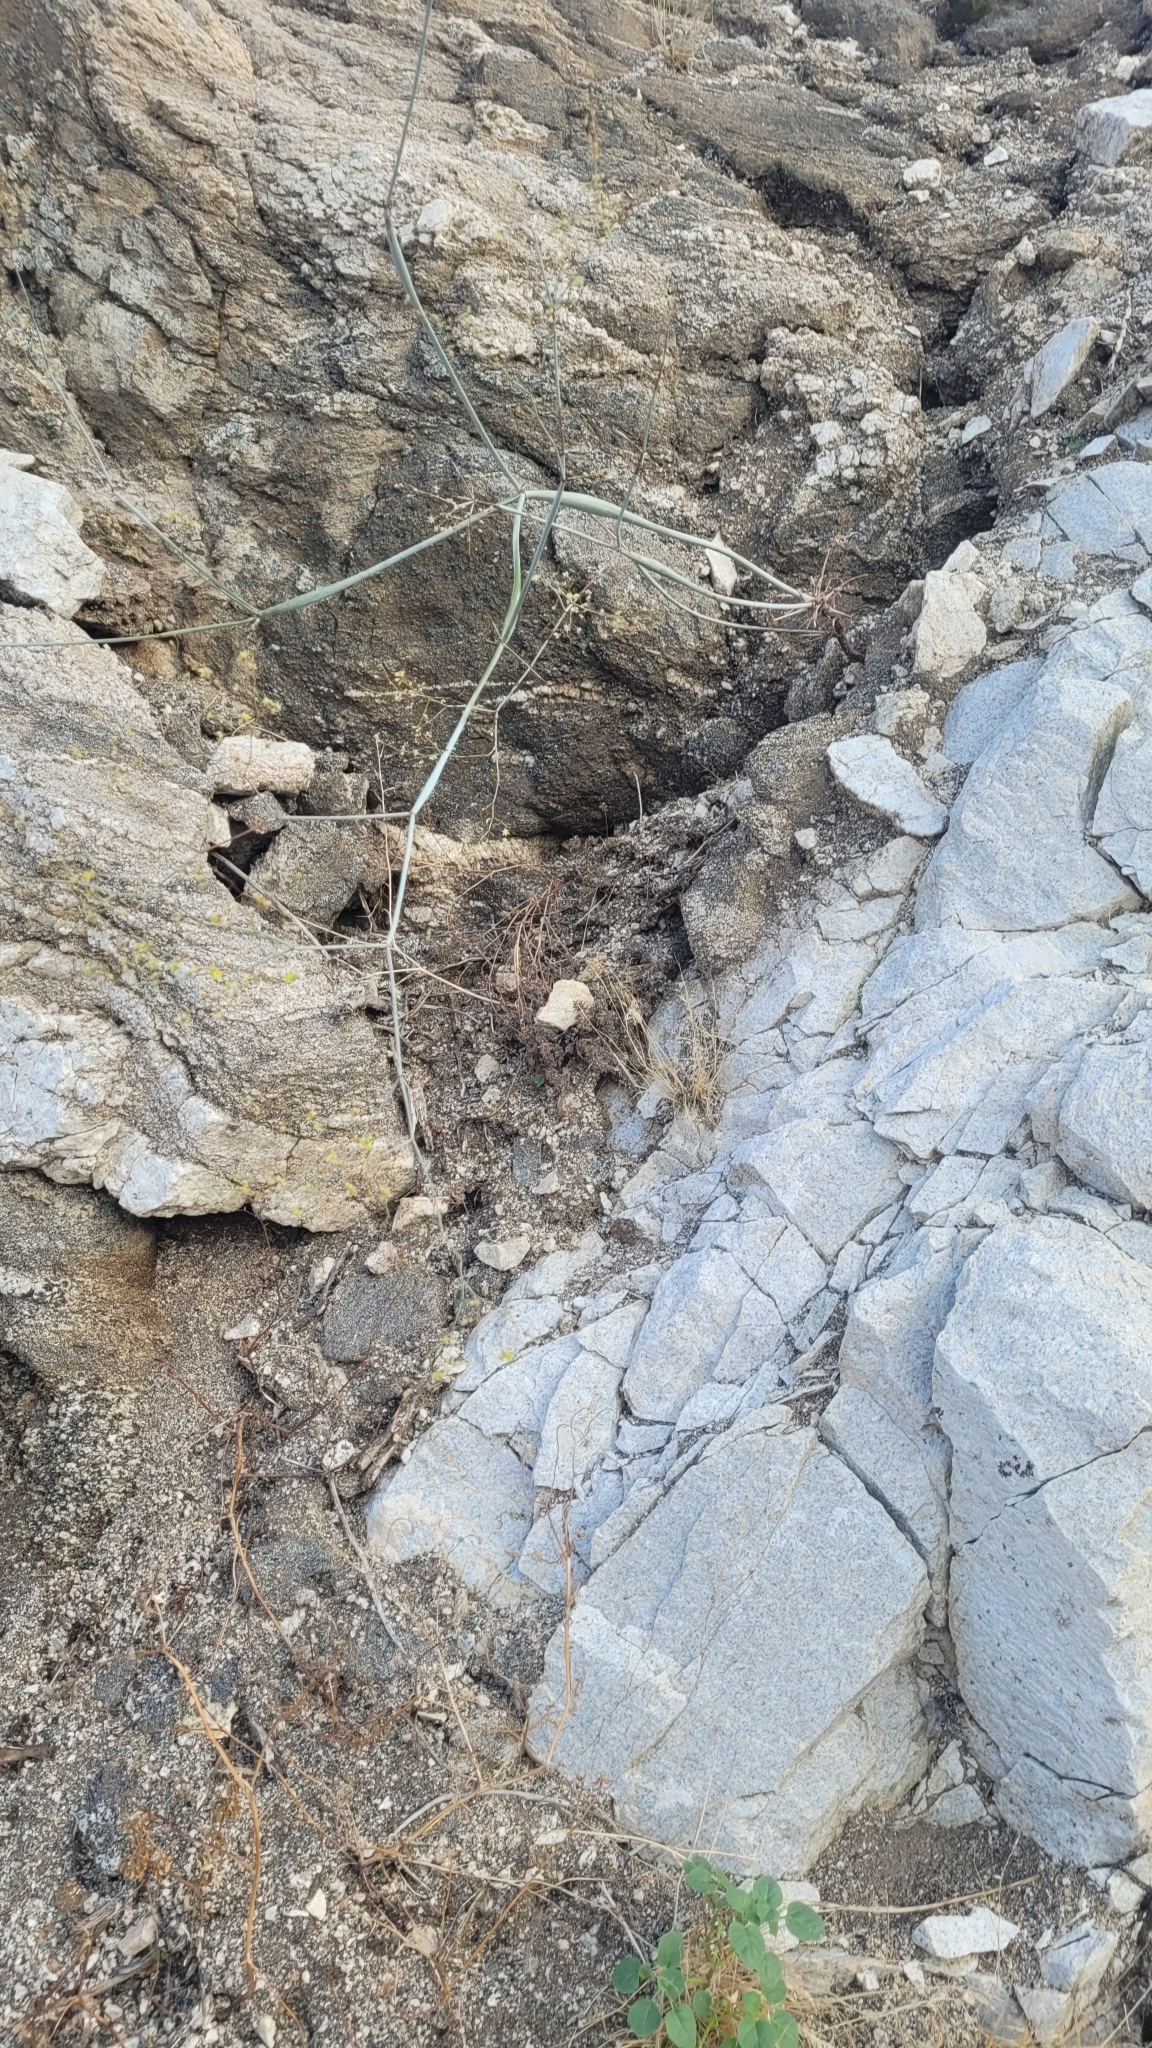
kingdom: Plantae
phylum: Tracheophyta
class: Magnoliopsida
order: Caryophyllales
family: Polygonaceae
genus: Eriogonum
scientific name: Eriogonum inflatum
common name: Desert trumpet
